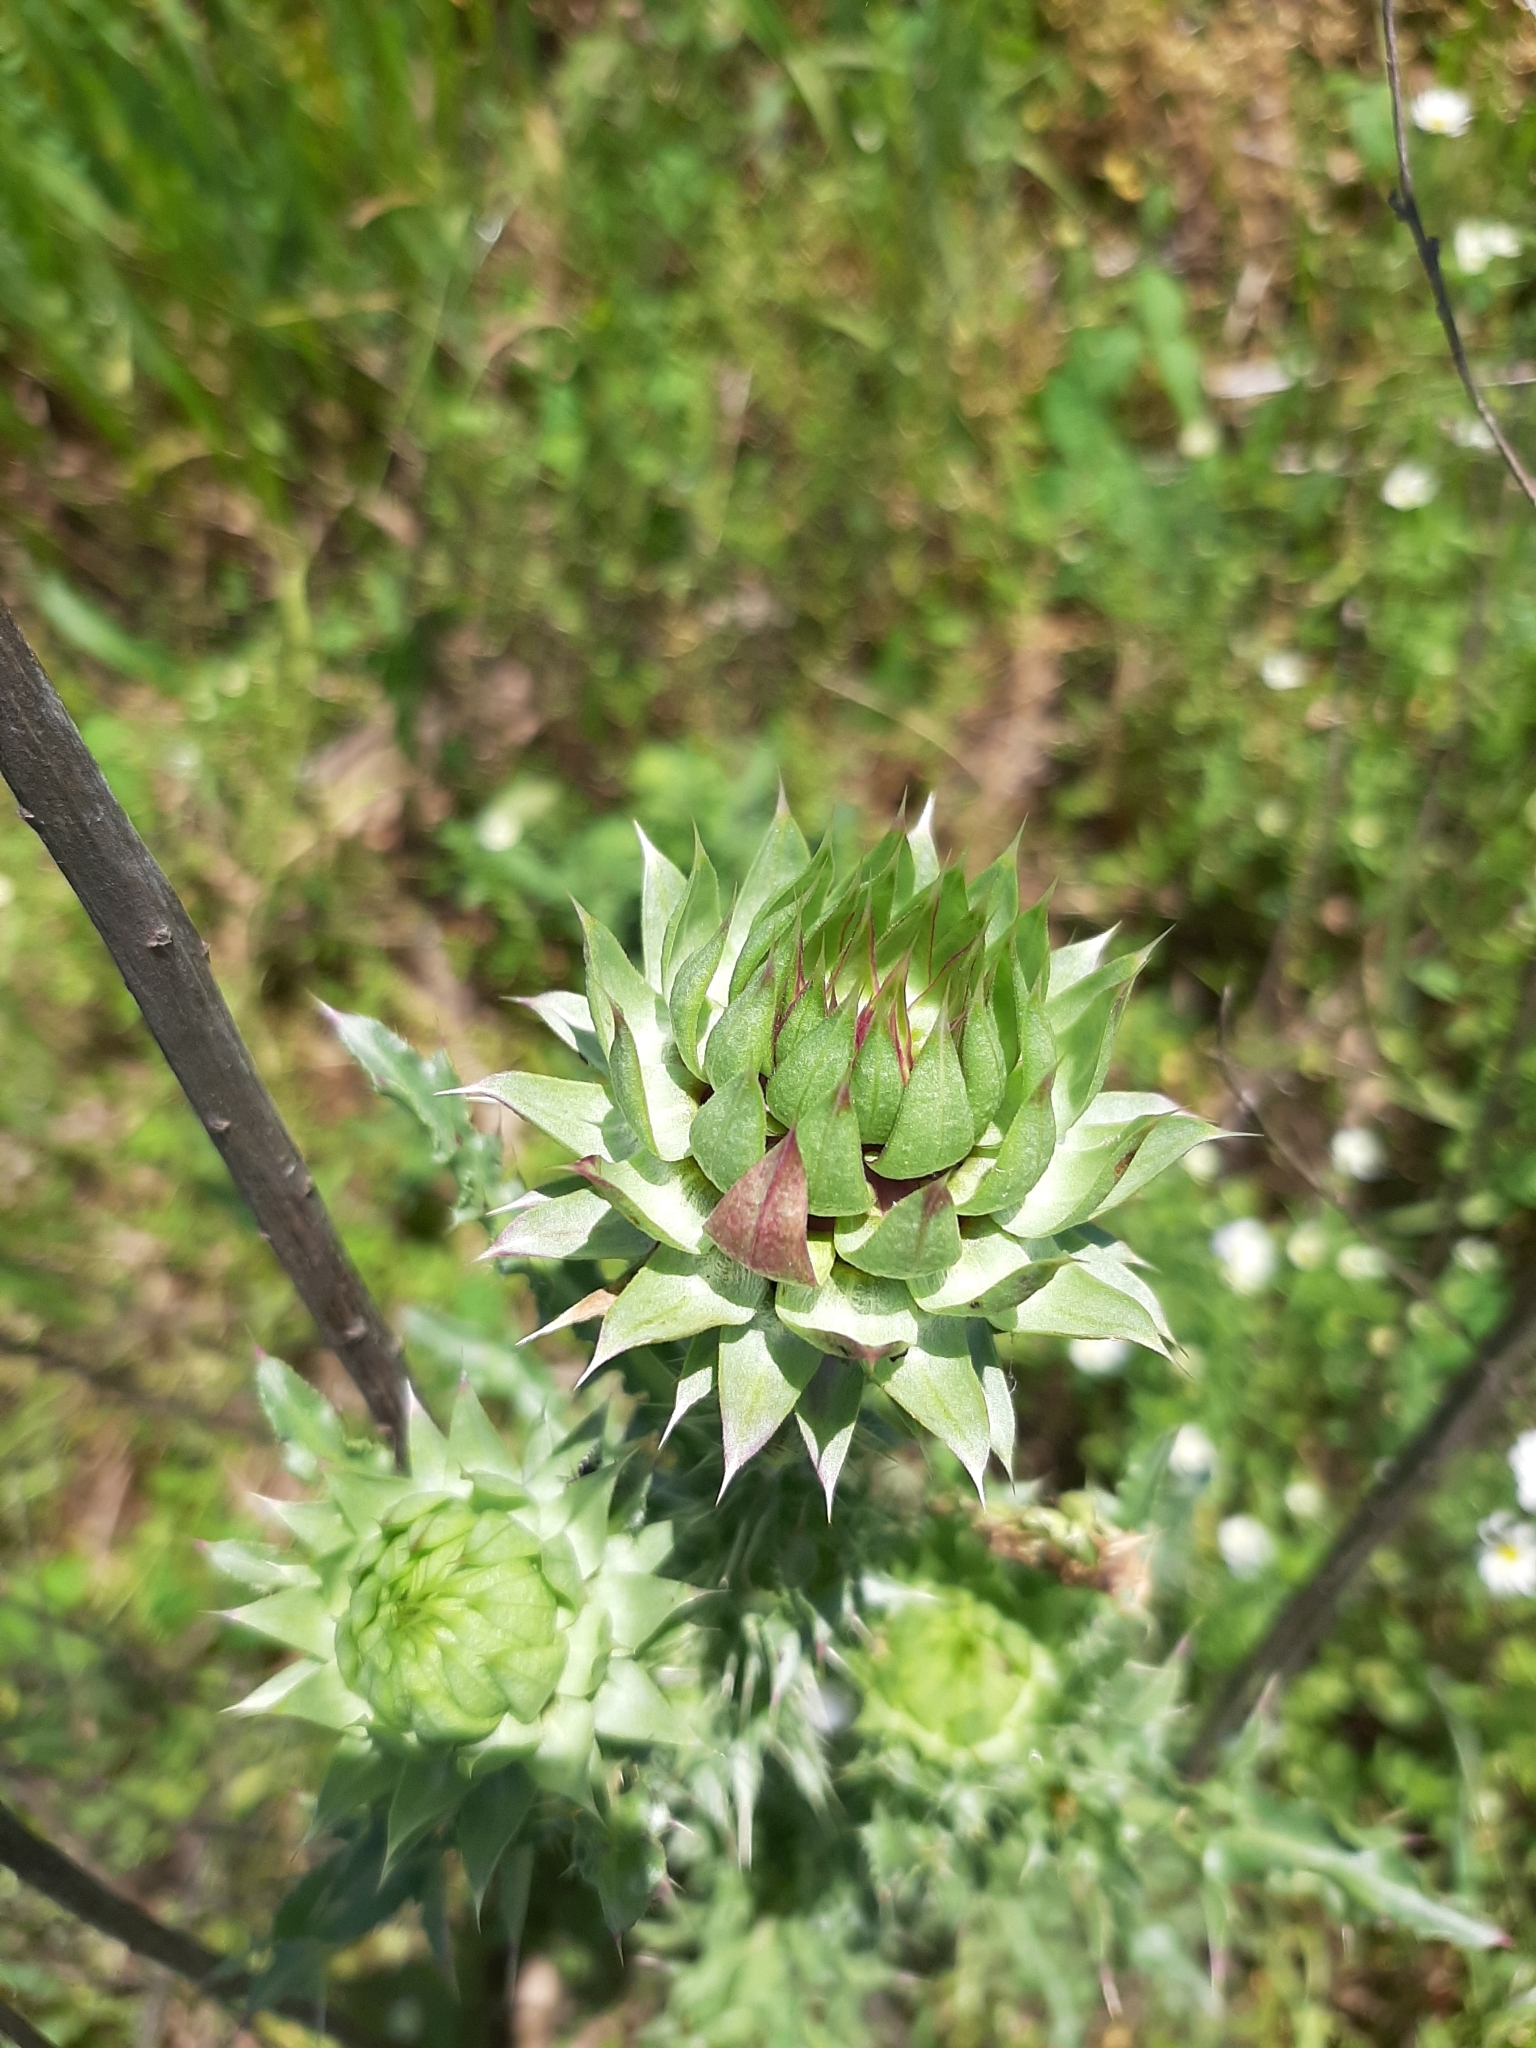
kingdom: Plantae
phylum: Tracheophyta
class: Magnoliopsida
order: Asterales
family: Asteraceae
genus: Carduus
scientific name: Carduus nutans
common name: Musk thistle
